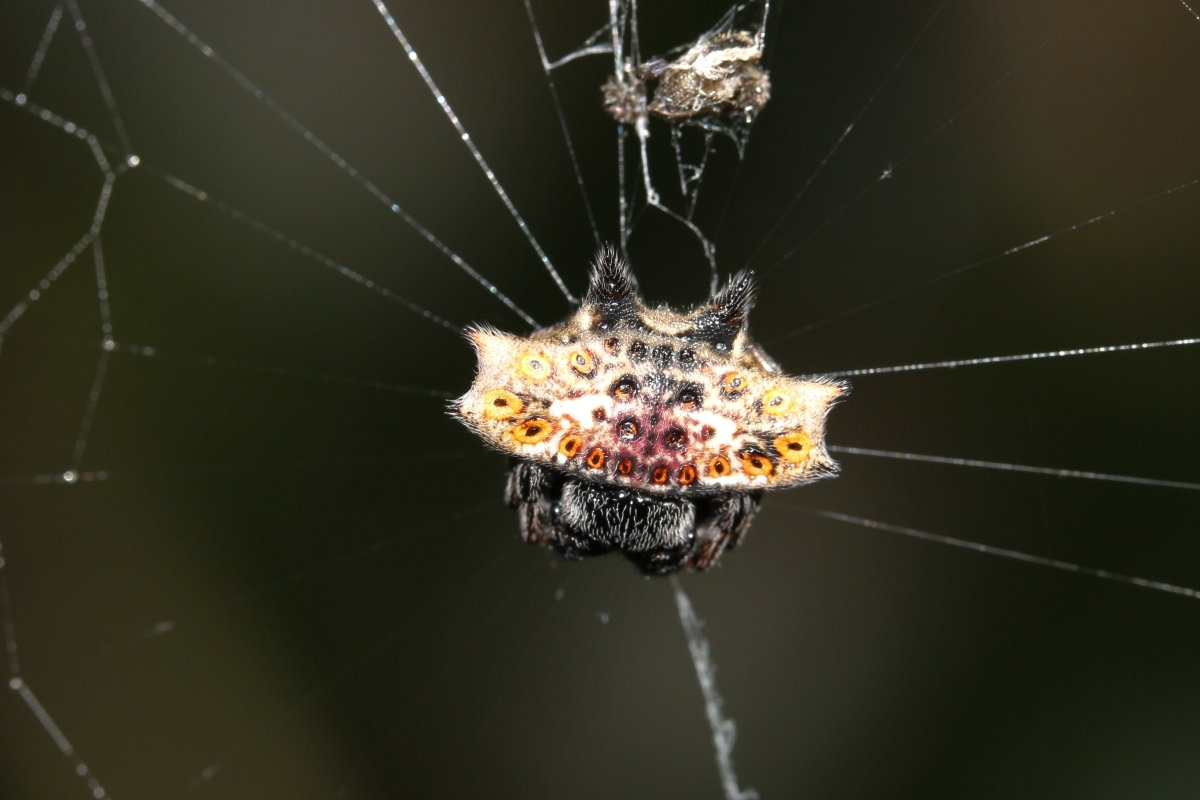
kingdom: Animalia
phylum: Arthropoda
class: Arachnida
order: Araneae
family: Araneidae
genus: Gasteracantha
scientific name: Gasteracantha cancriformis
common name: Orb weavers
